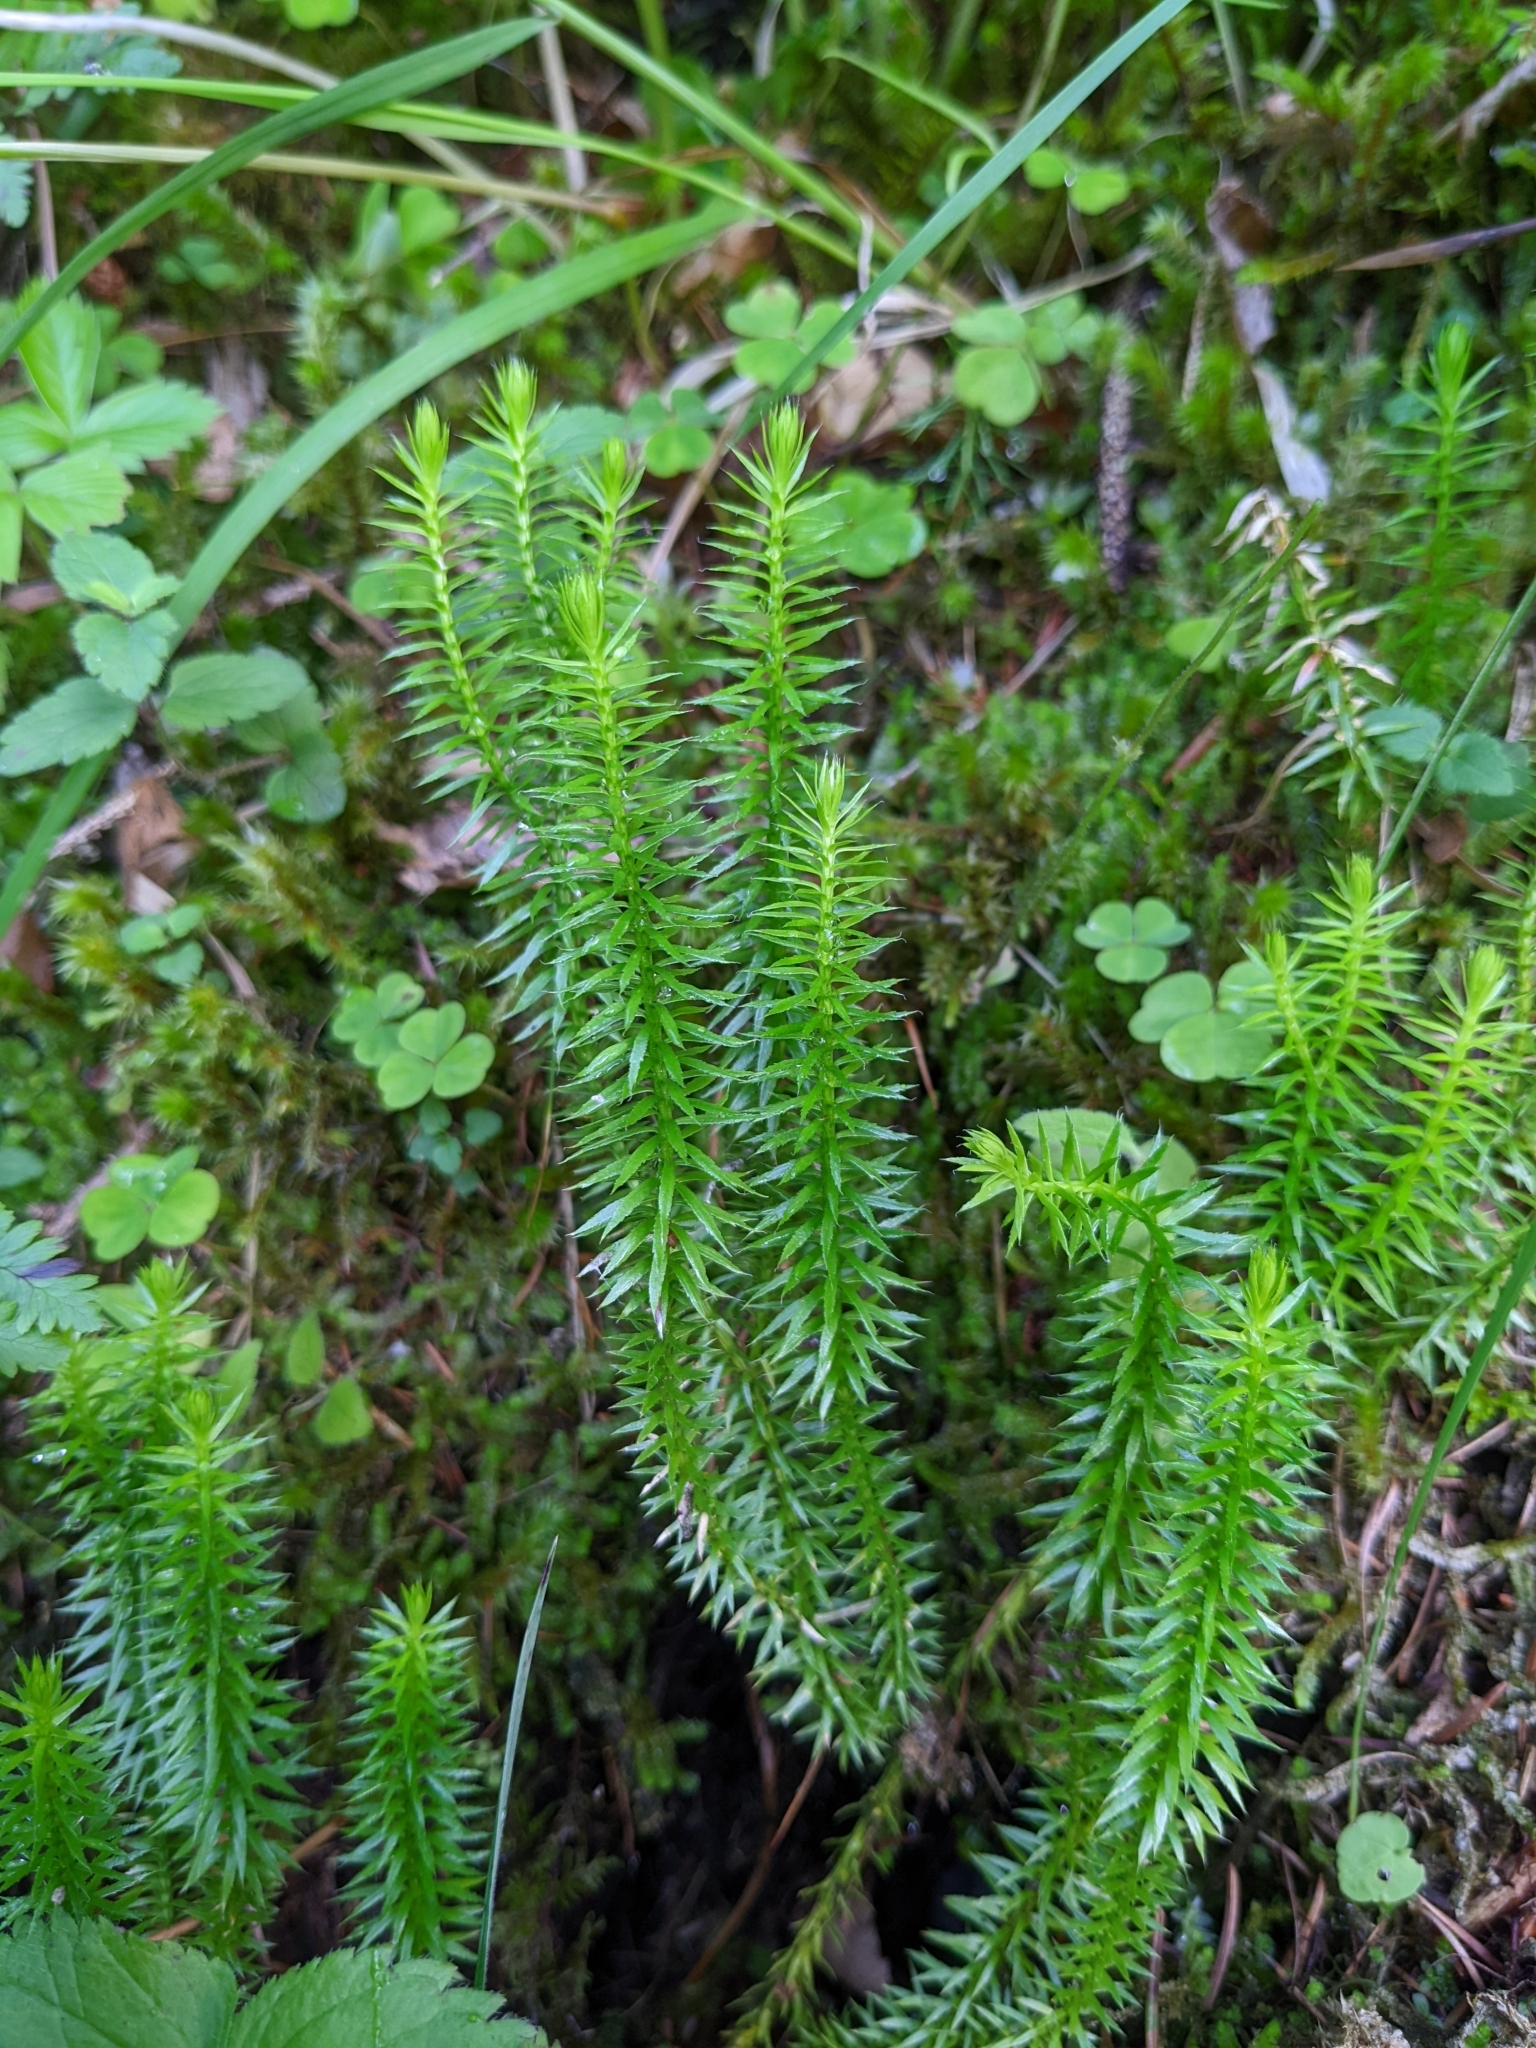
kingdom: Plantae
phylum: Tracheophyta
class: Lycopodiopsida
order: Lycopodiales
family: Lycopodiaceae
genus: Spinulum
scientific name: Spinulum annotinum
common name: Interrupted club-moss
